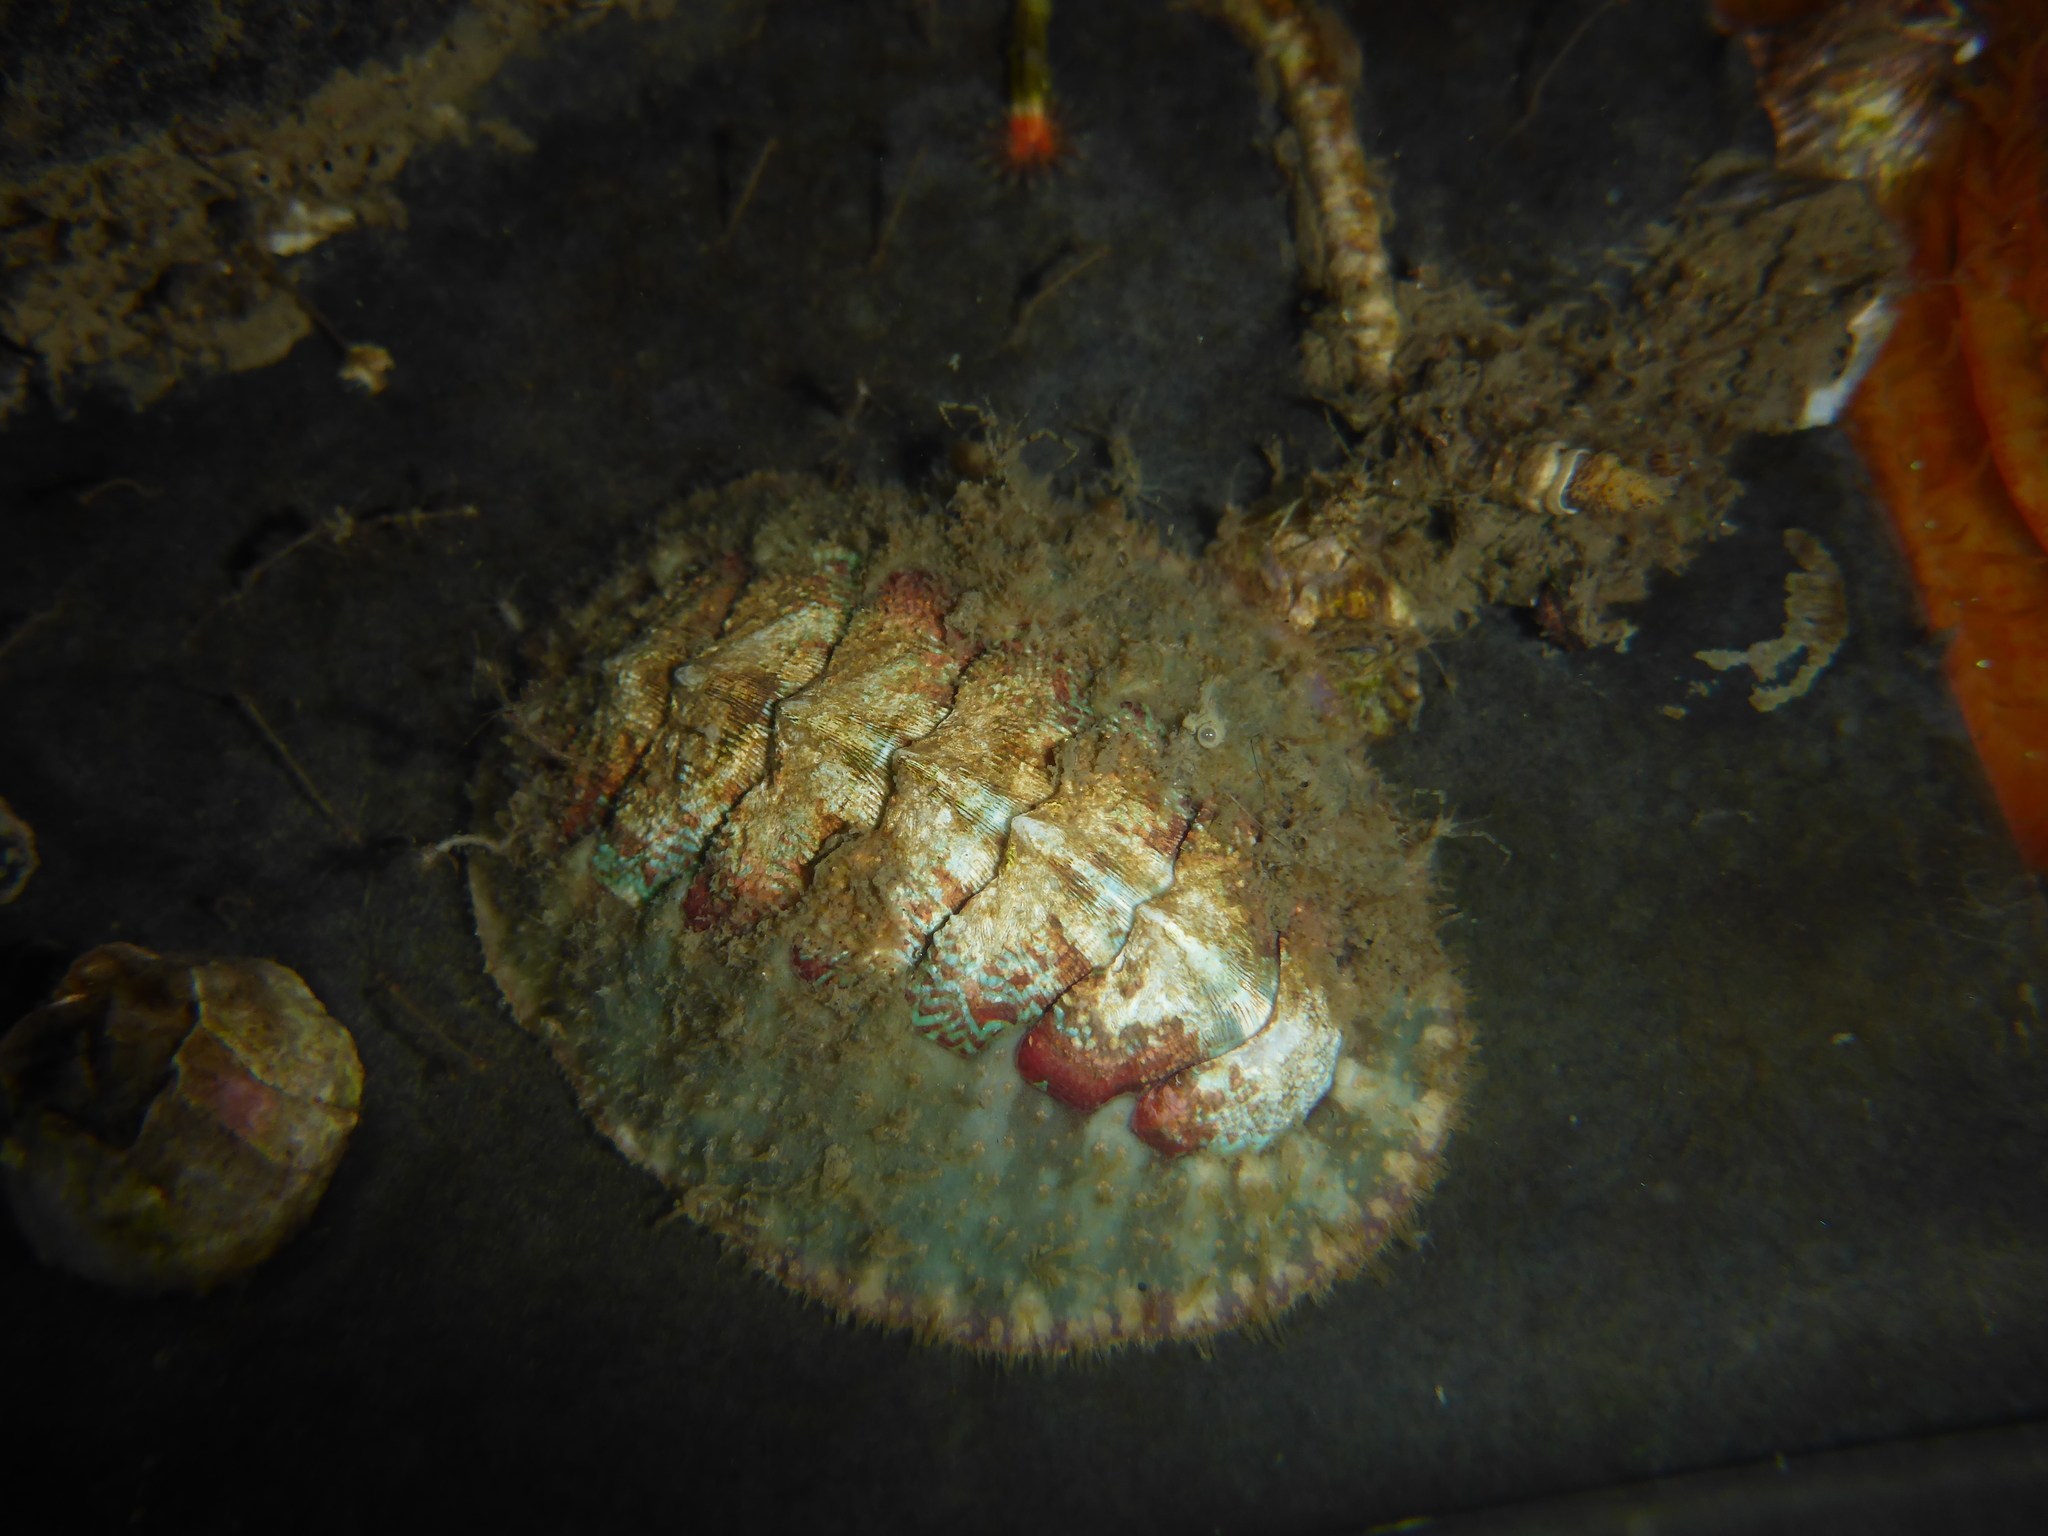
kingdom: Animalia
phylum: Mollusca
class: Polyplacophora
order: Chitonida
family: Mopaliidae
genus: Mopalia
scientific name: Mopalia spectabilis
